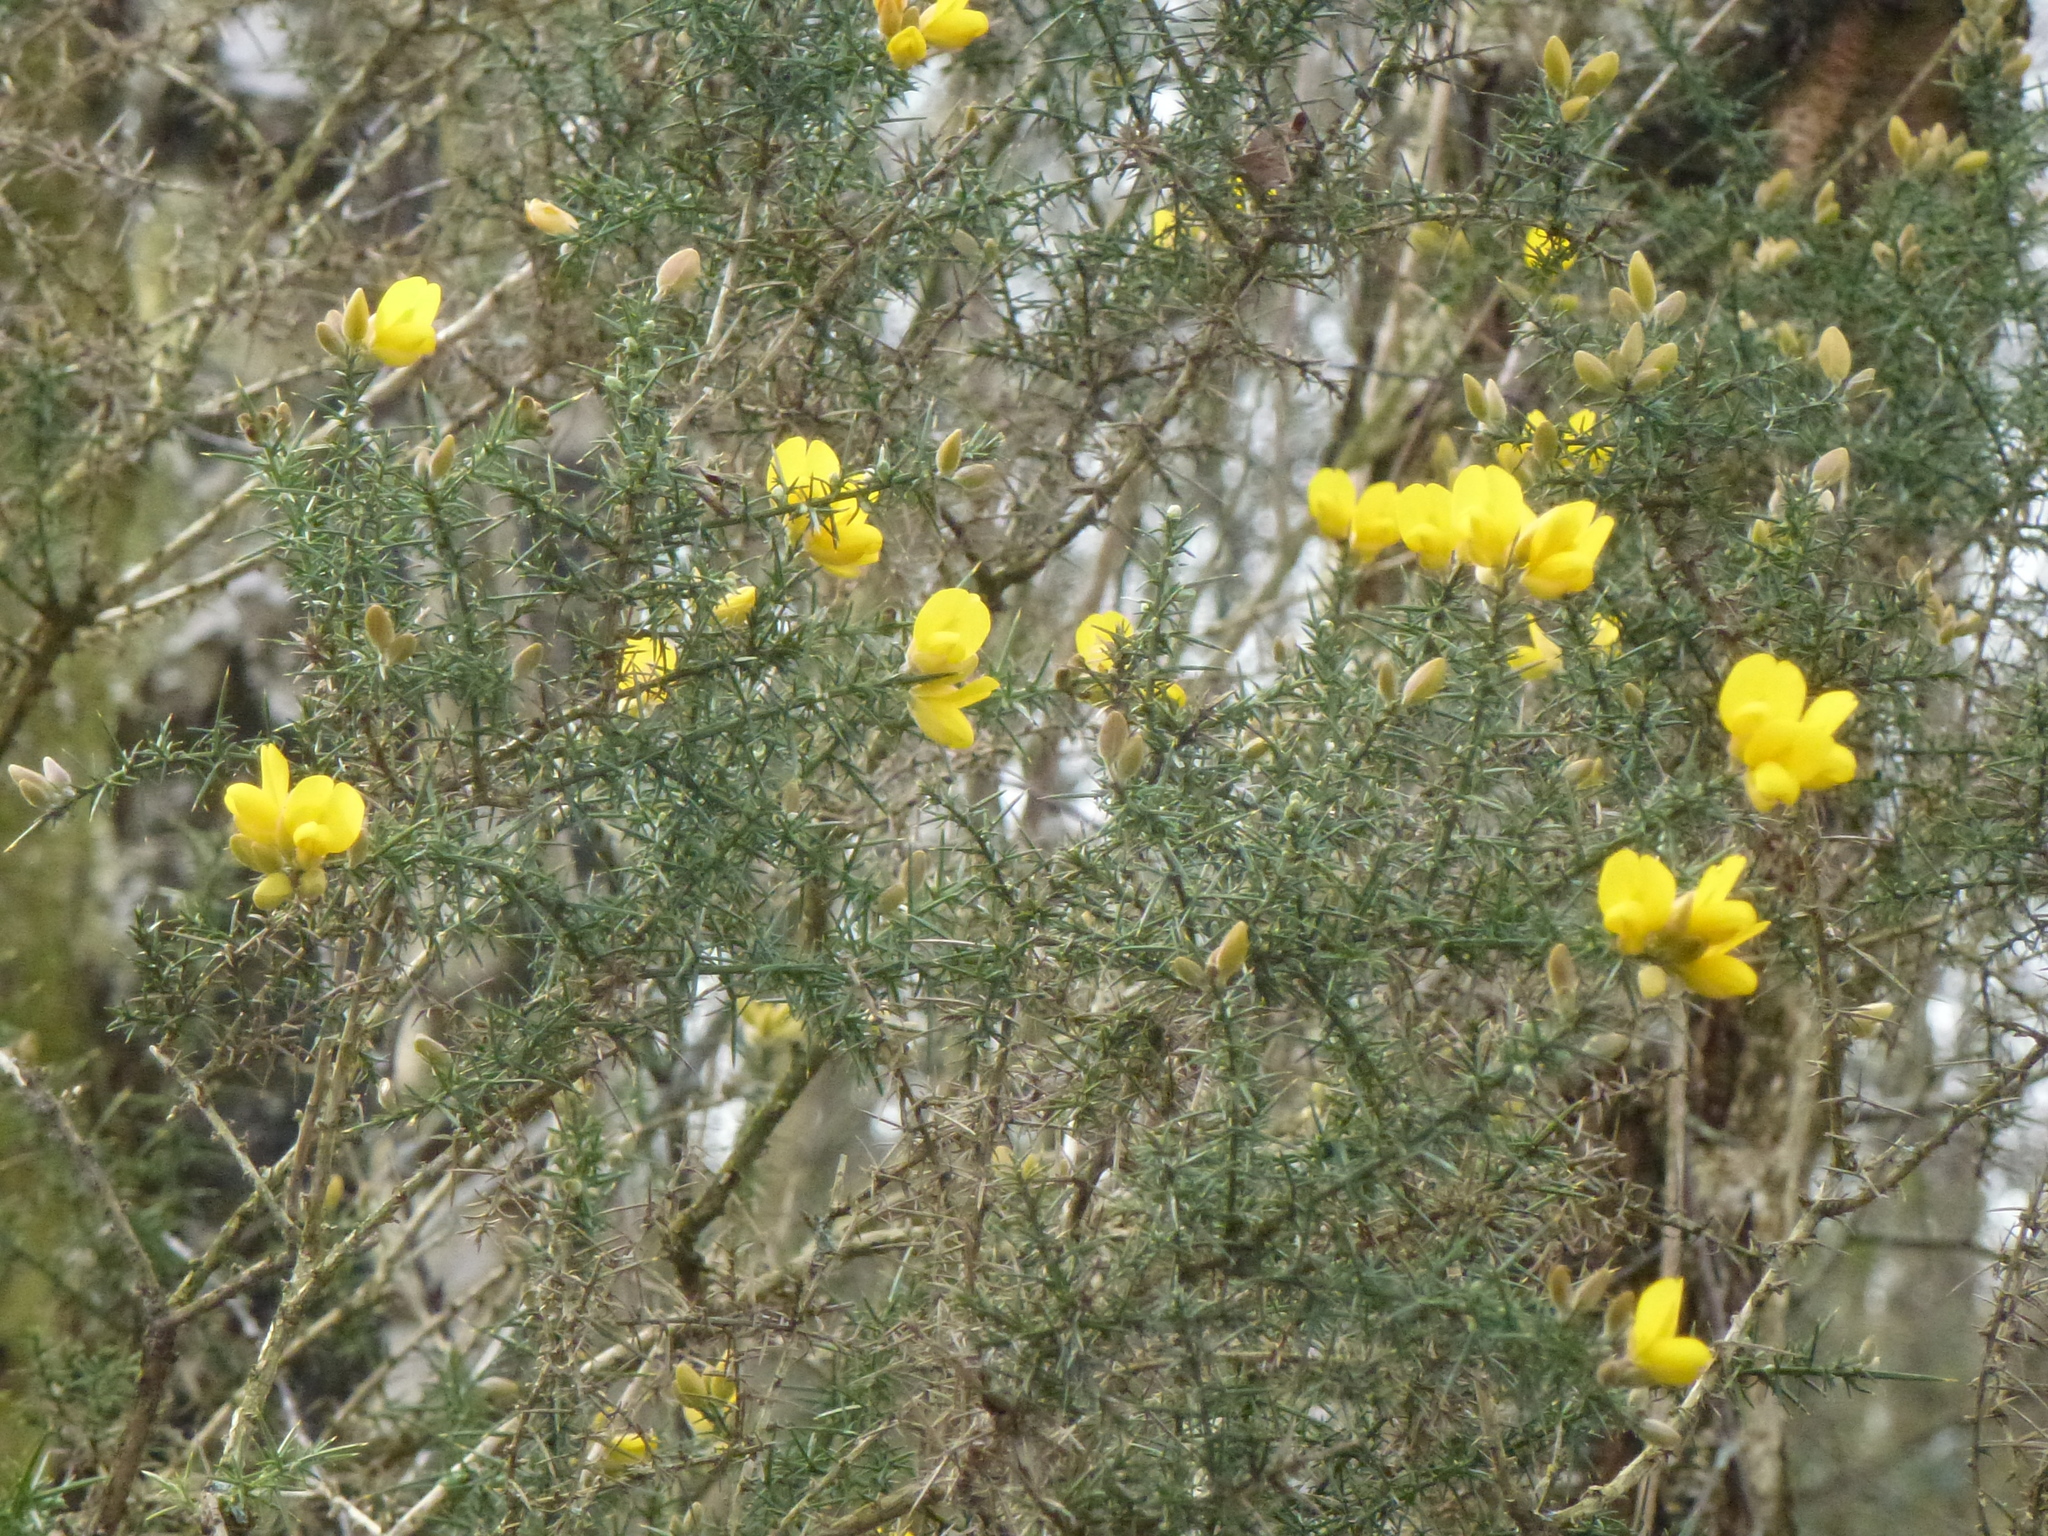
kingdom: Plantae
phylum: Tracheophyta
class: Magnoliopsida
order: Fabales
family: Fabaceae
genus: Ulex
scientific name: Ulex europaeus
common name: Common gorse
